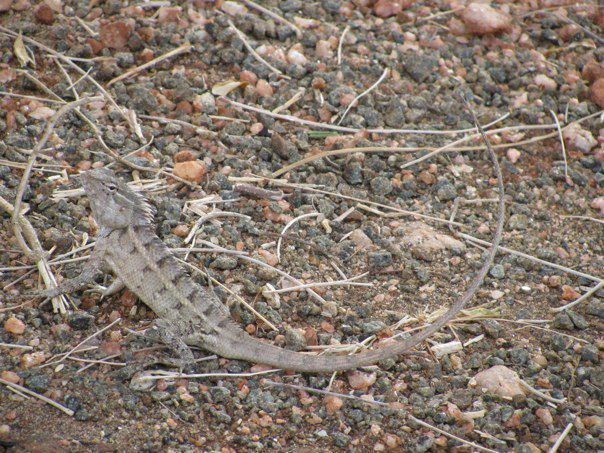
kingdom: Animalia
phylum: Chordata
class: Squamata
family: Agamidae
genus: Calotes
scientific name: Calotes versicolor
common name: Oriental garden lizard
